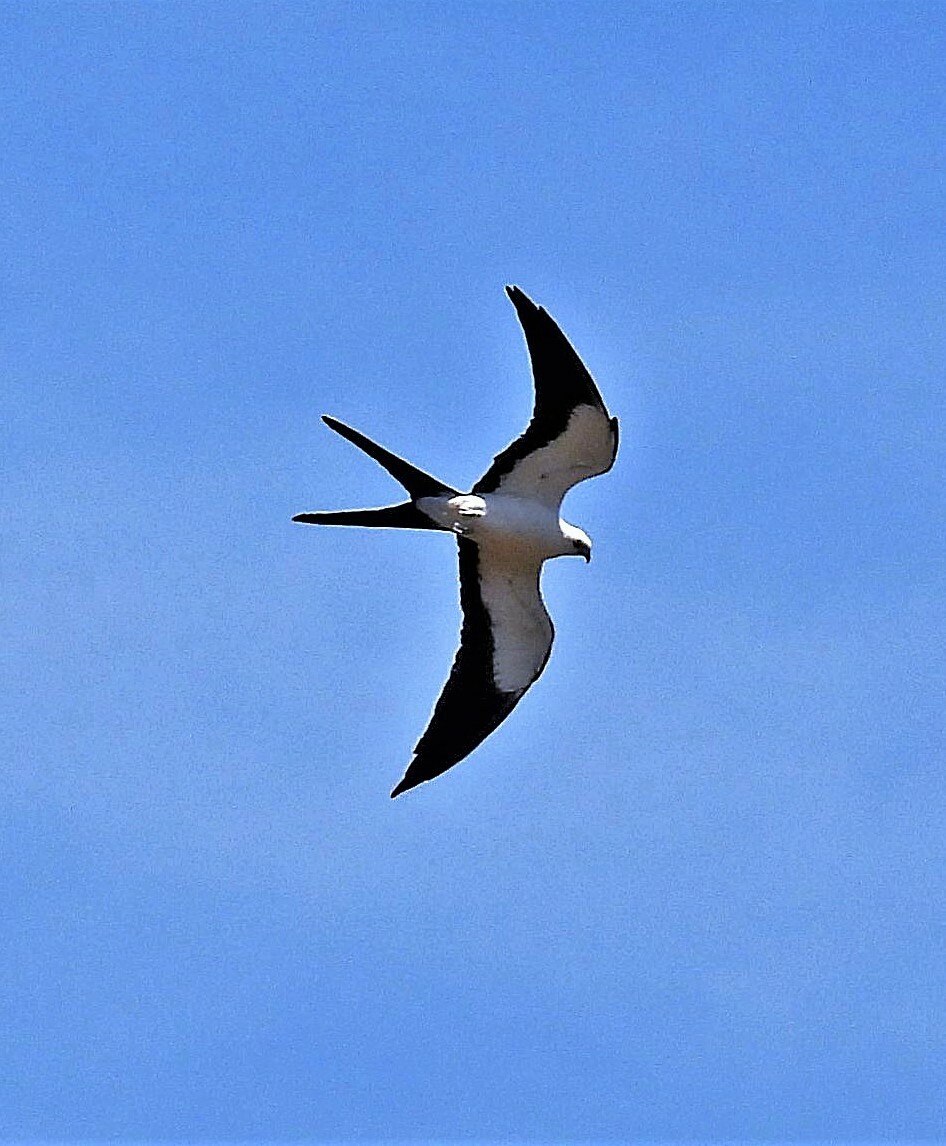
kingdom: Animalia
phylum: Chordata
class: Aves
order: Accipitriformes
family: Accipitridae
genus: Elanoides
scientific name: Elanoides forficatus
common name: Swallow-tailed kite
